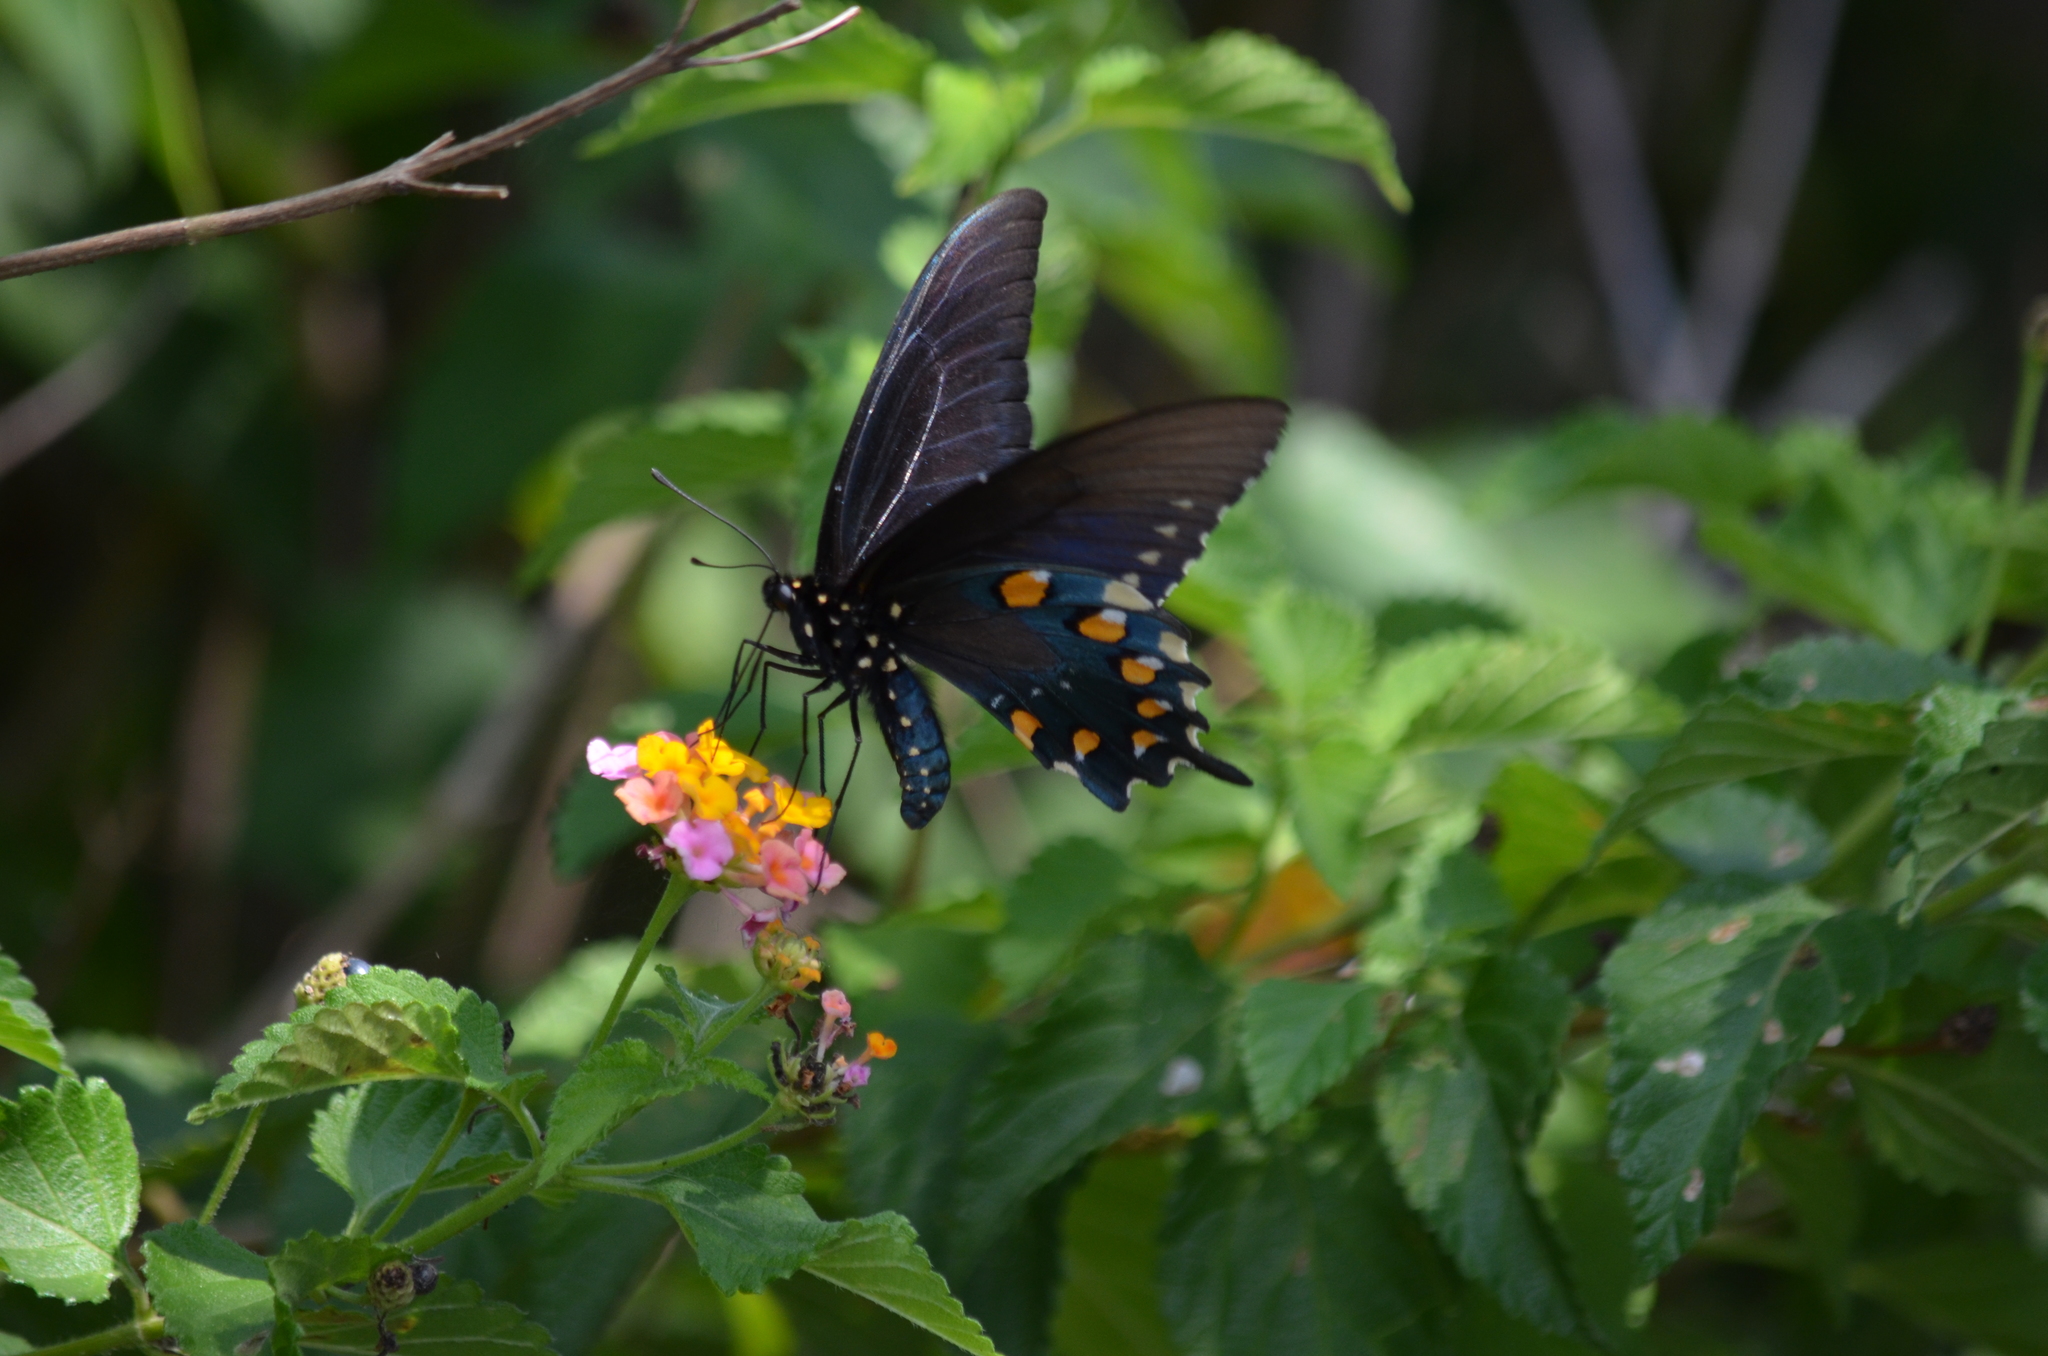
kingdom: Animalia
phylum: Arthropoda
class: Insecta
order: Lepidoptera
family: Papilionidae
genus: Battus
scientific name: Battus philenor
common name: Pipevine swallowtail
